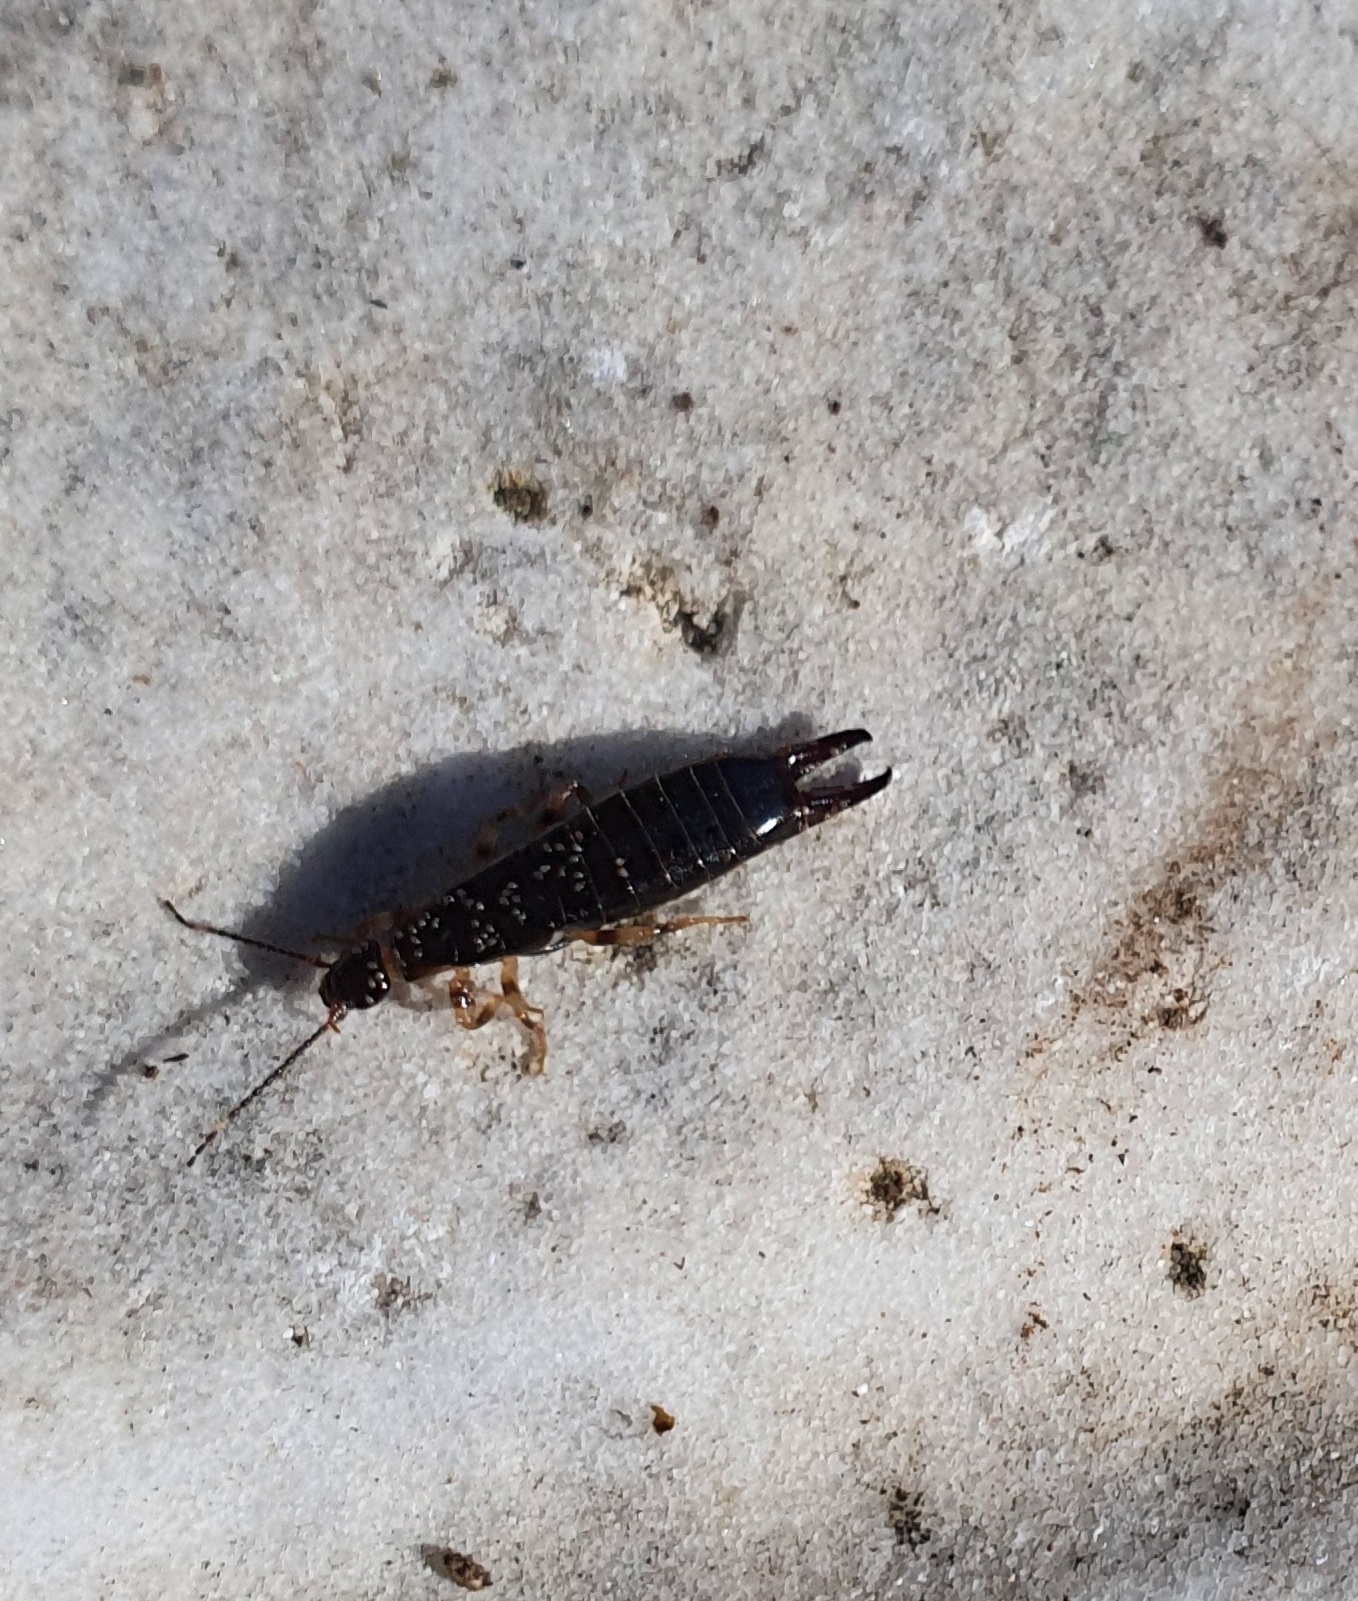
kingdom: Animalia
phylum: Arthropoda
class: Insecta
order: Dermaptera
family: Anisolabididae
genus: Euborellia
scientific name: Euborellia annulipes
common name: Ringlegged earwig
